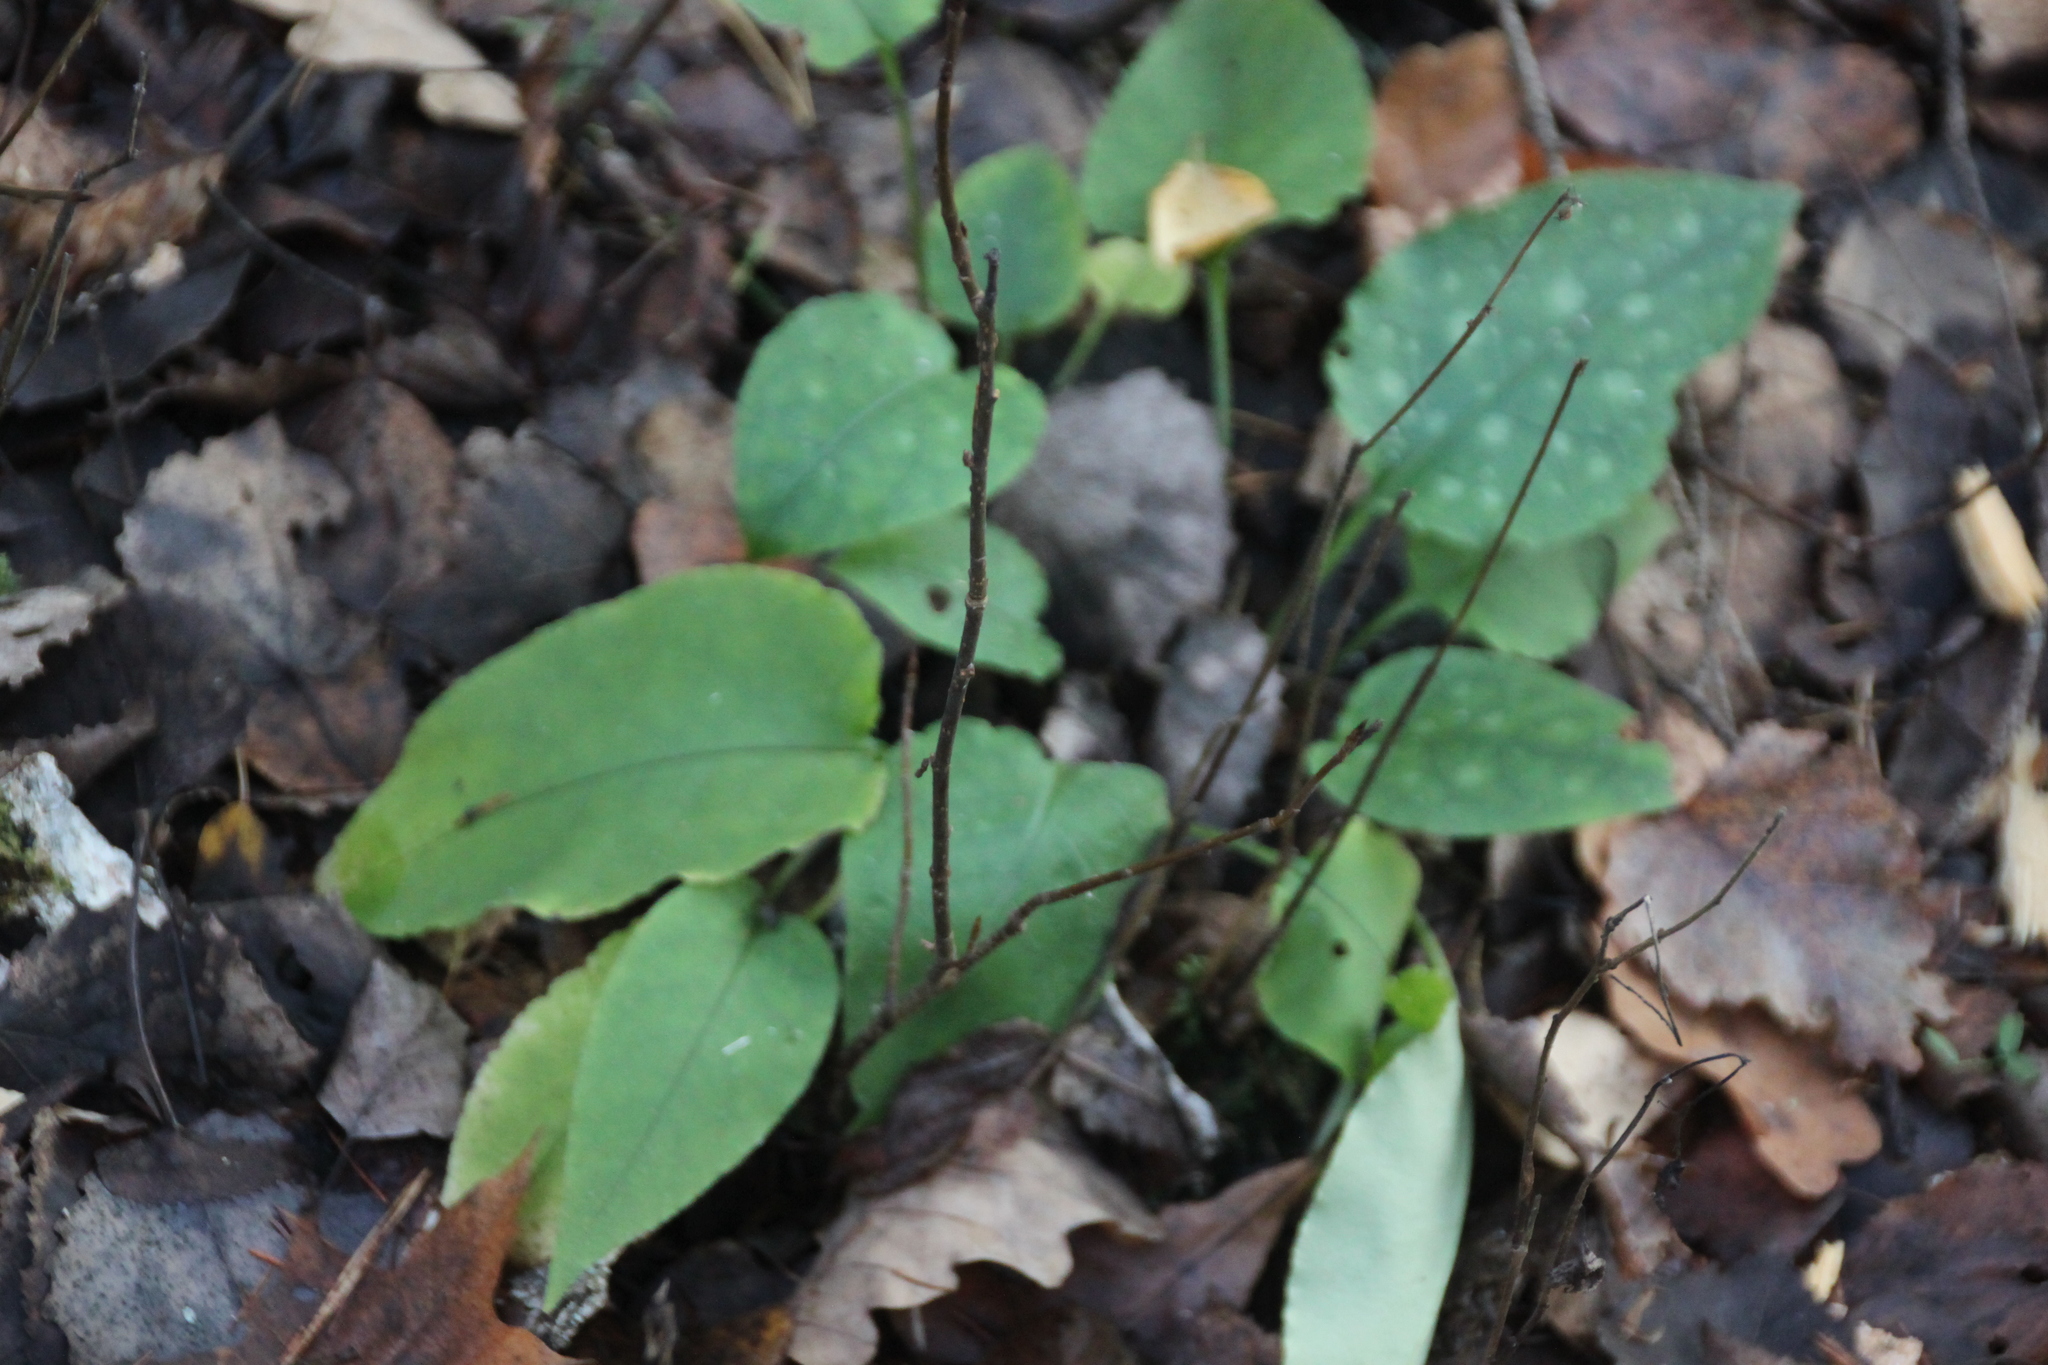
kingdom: Plantae
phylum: Tracheophyta
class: Magnoliopsida
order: Boraginales
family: Boraginaceae
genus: Pulmonaria
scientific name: Pulmonaria obscura
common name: Suffolk lungwort
